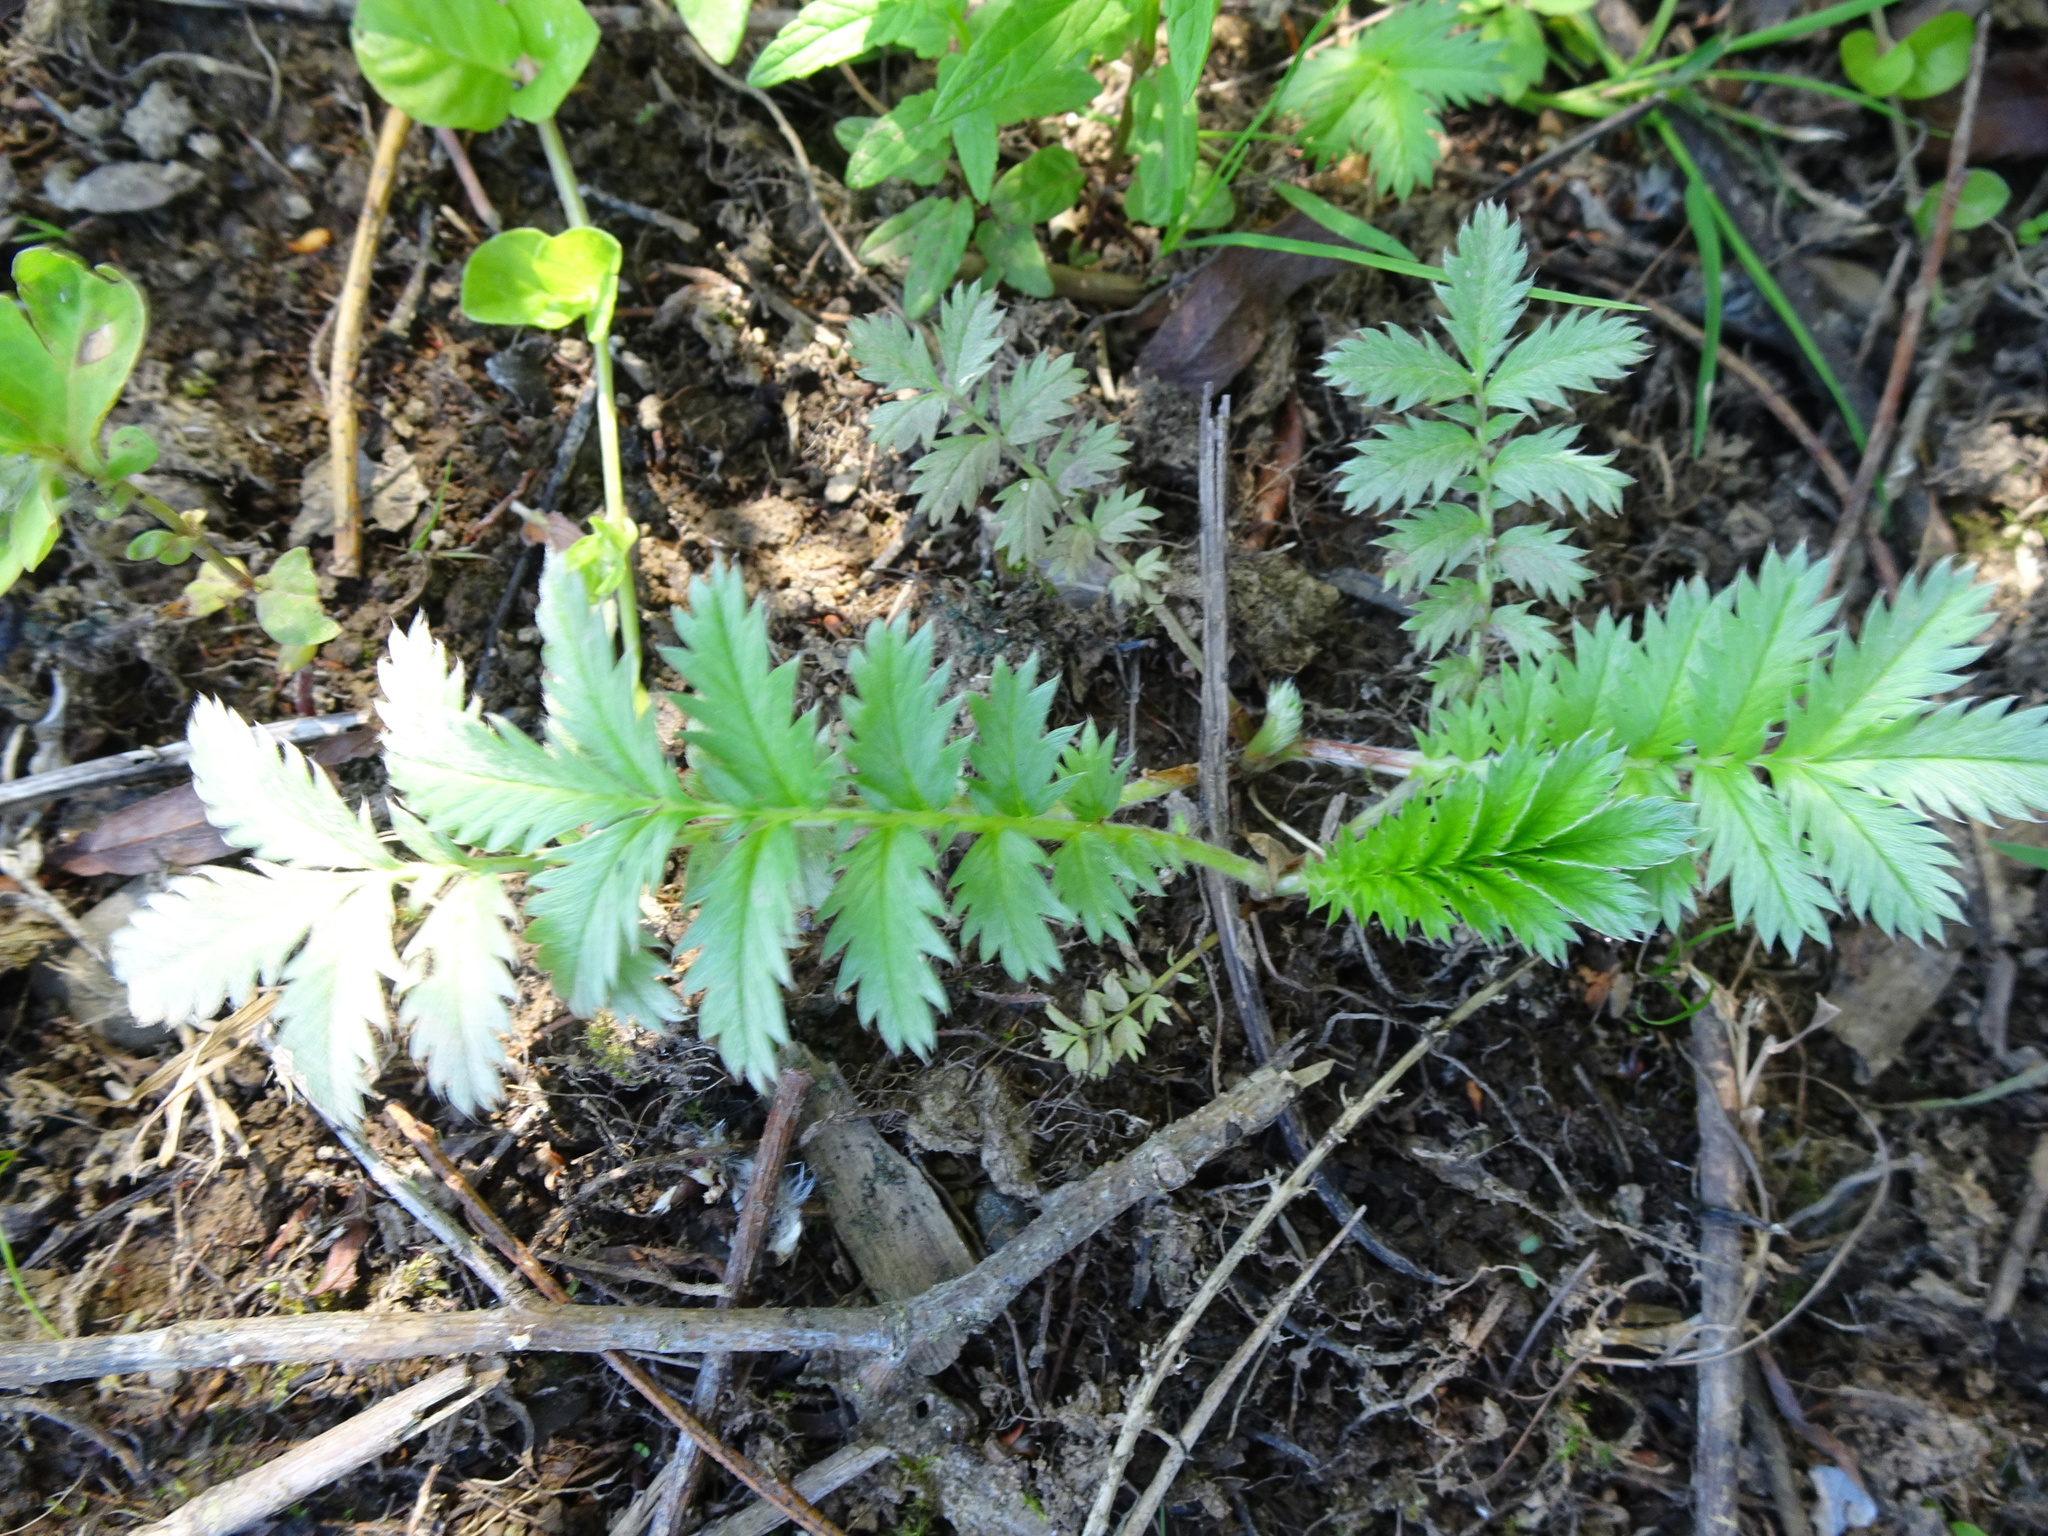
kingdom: Plantae
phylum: Tracheophyta
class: Magnoliopsida
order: Rosales
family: Rosaceae
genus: Argentina
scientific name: Argentina anserina
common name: Common silverweed
